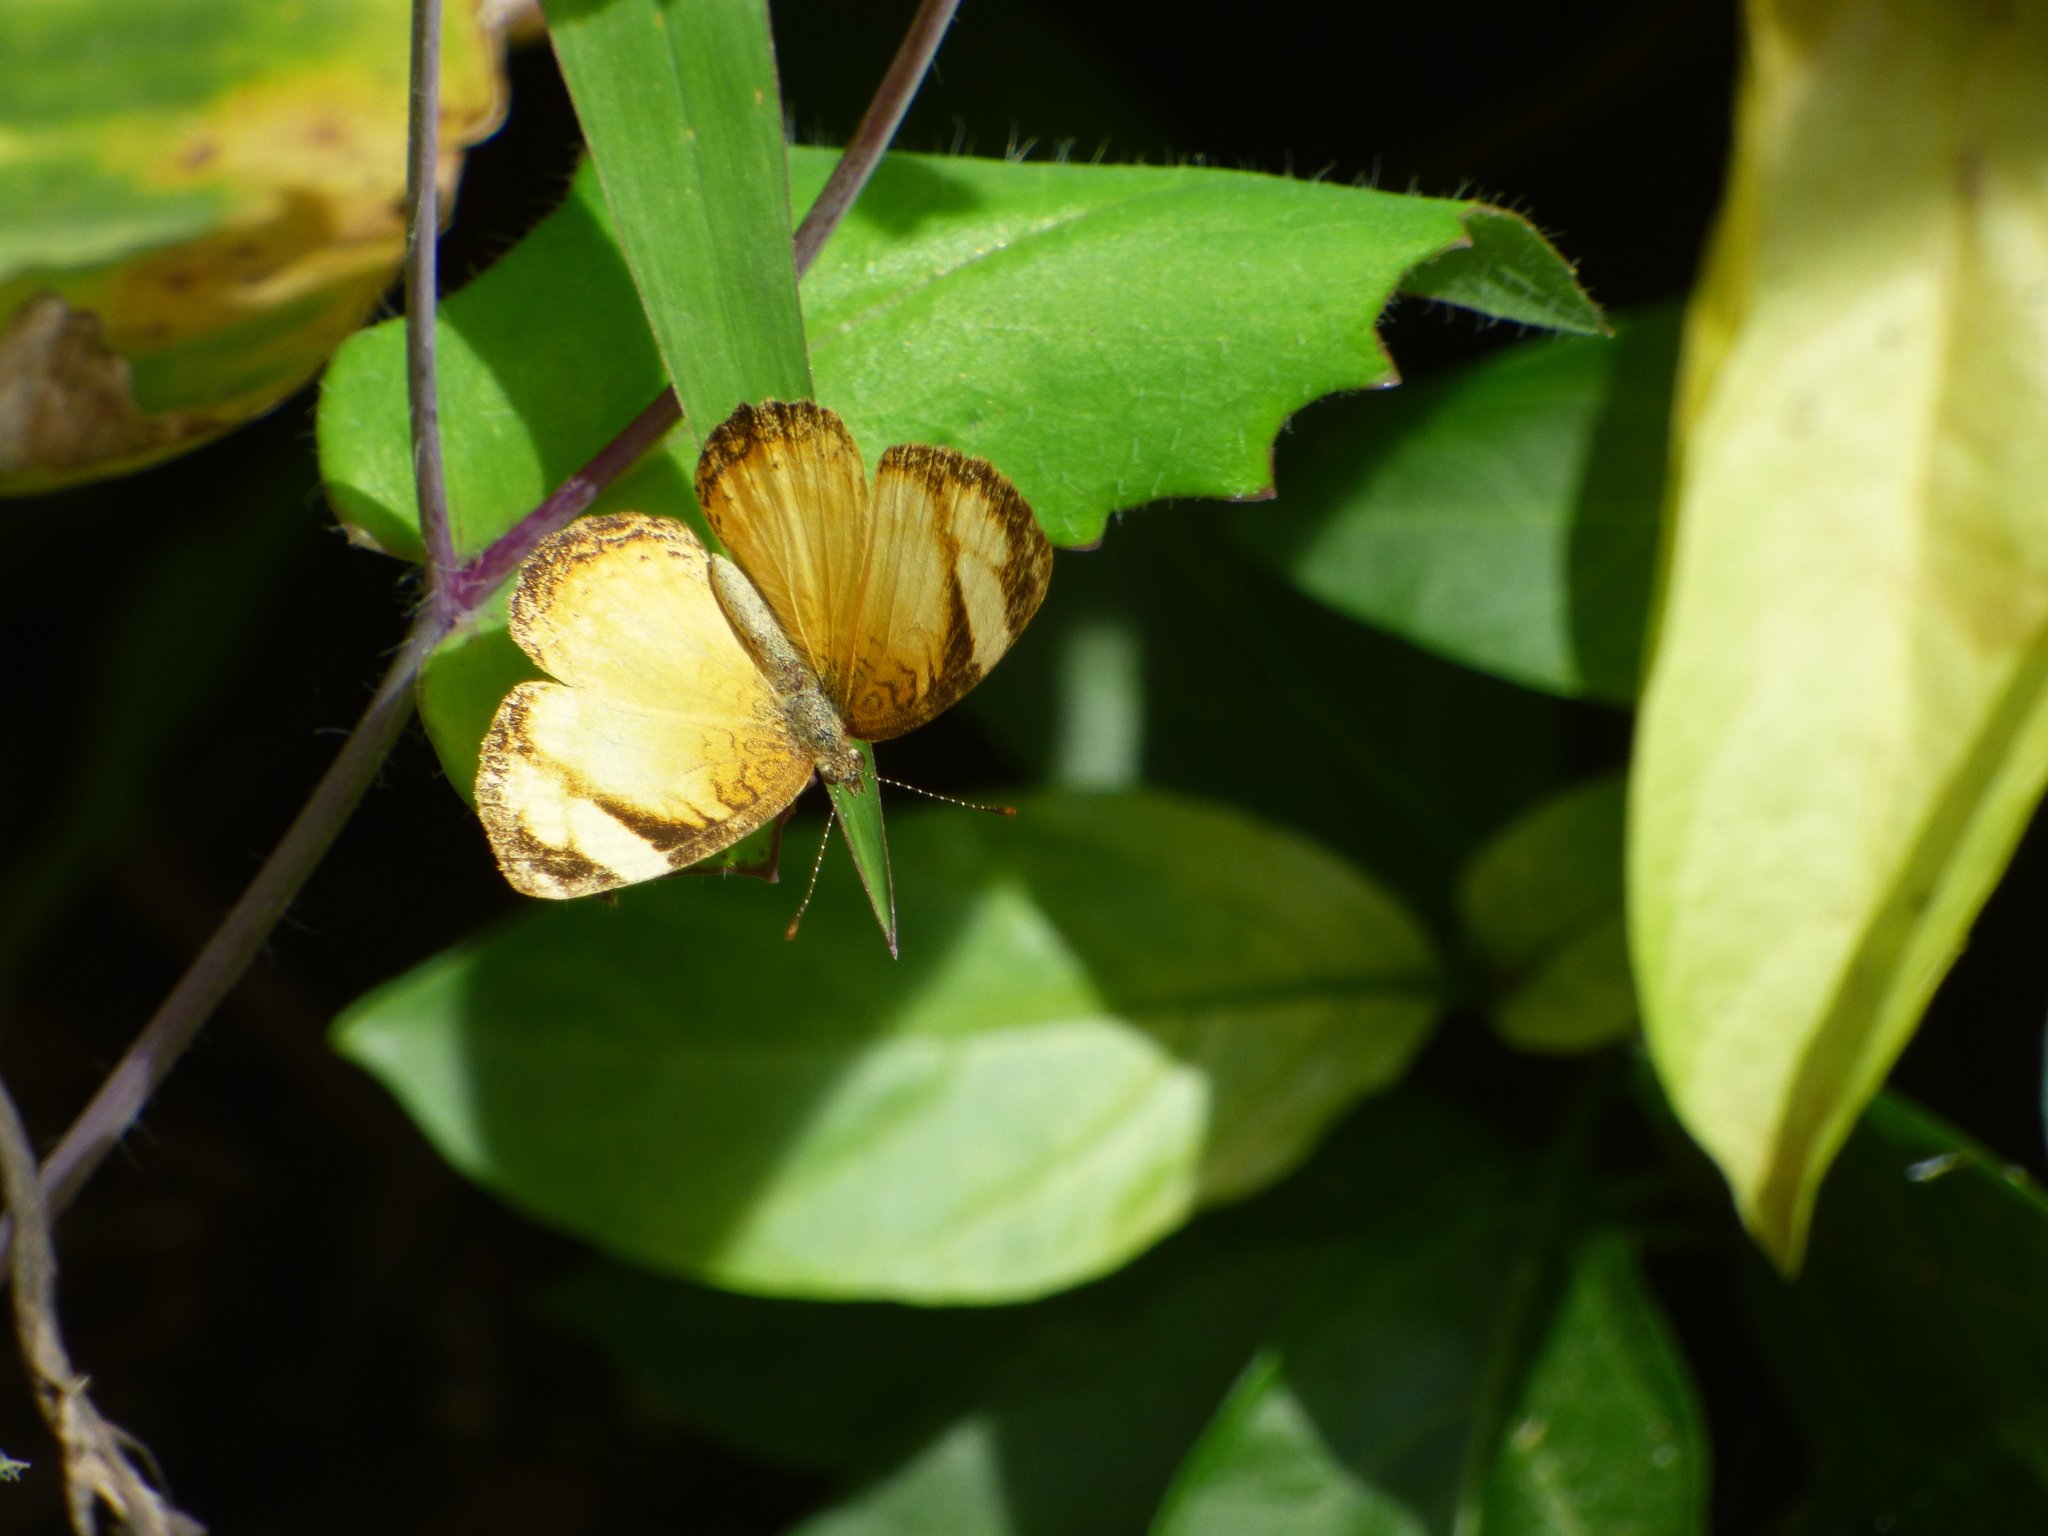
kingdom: Animalia
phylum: Arthropoda
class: Insecta
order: Lepidoptera
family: Nymphalidae
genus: Tegosa
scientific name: Tegosa anieta
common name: Black-bordered crescent
